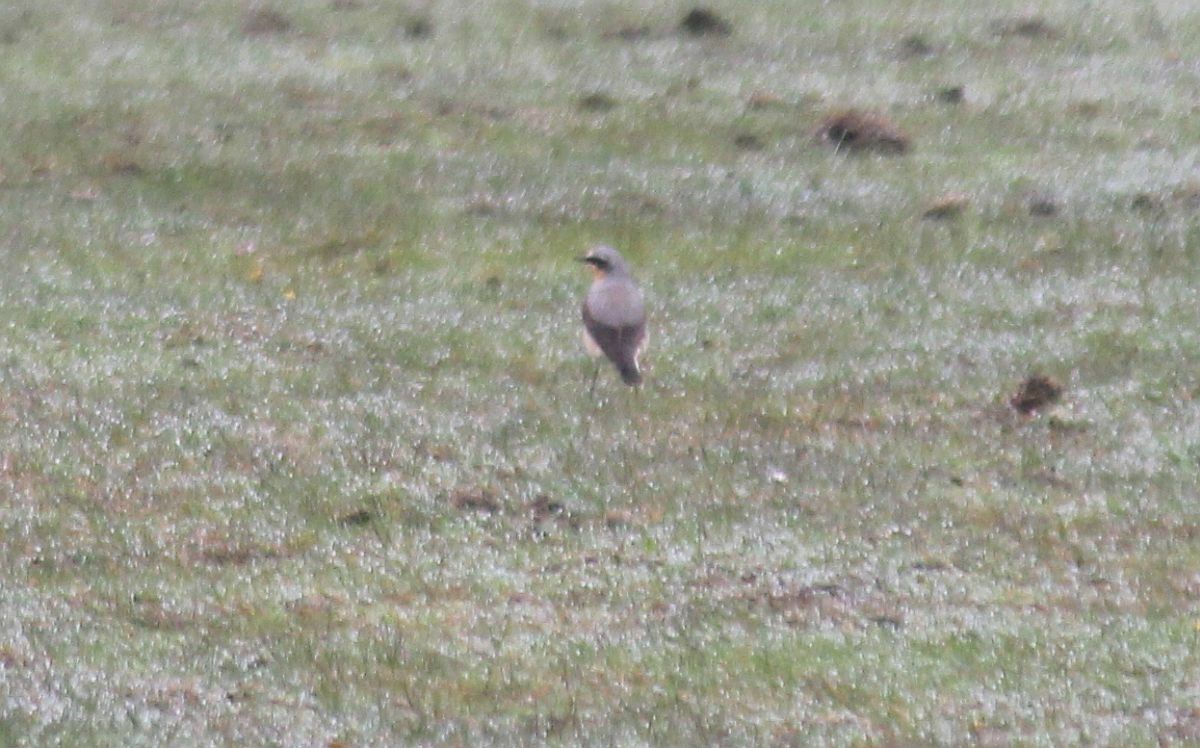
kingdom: Animalia
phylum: Chordata
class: Aves
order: Passeriformes
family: Muscicapidae
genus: Oenanthe
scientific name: Oenanthe oenanthe
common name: Northern wheatear
